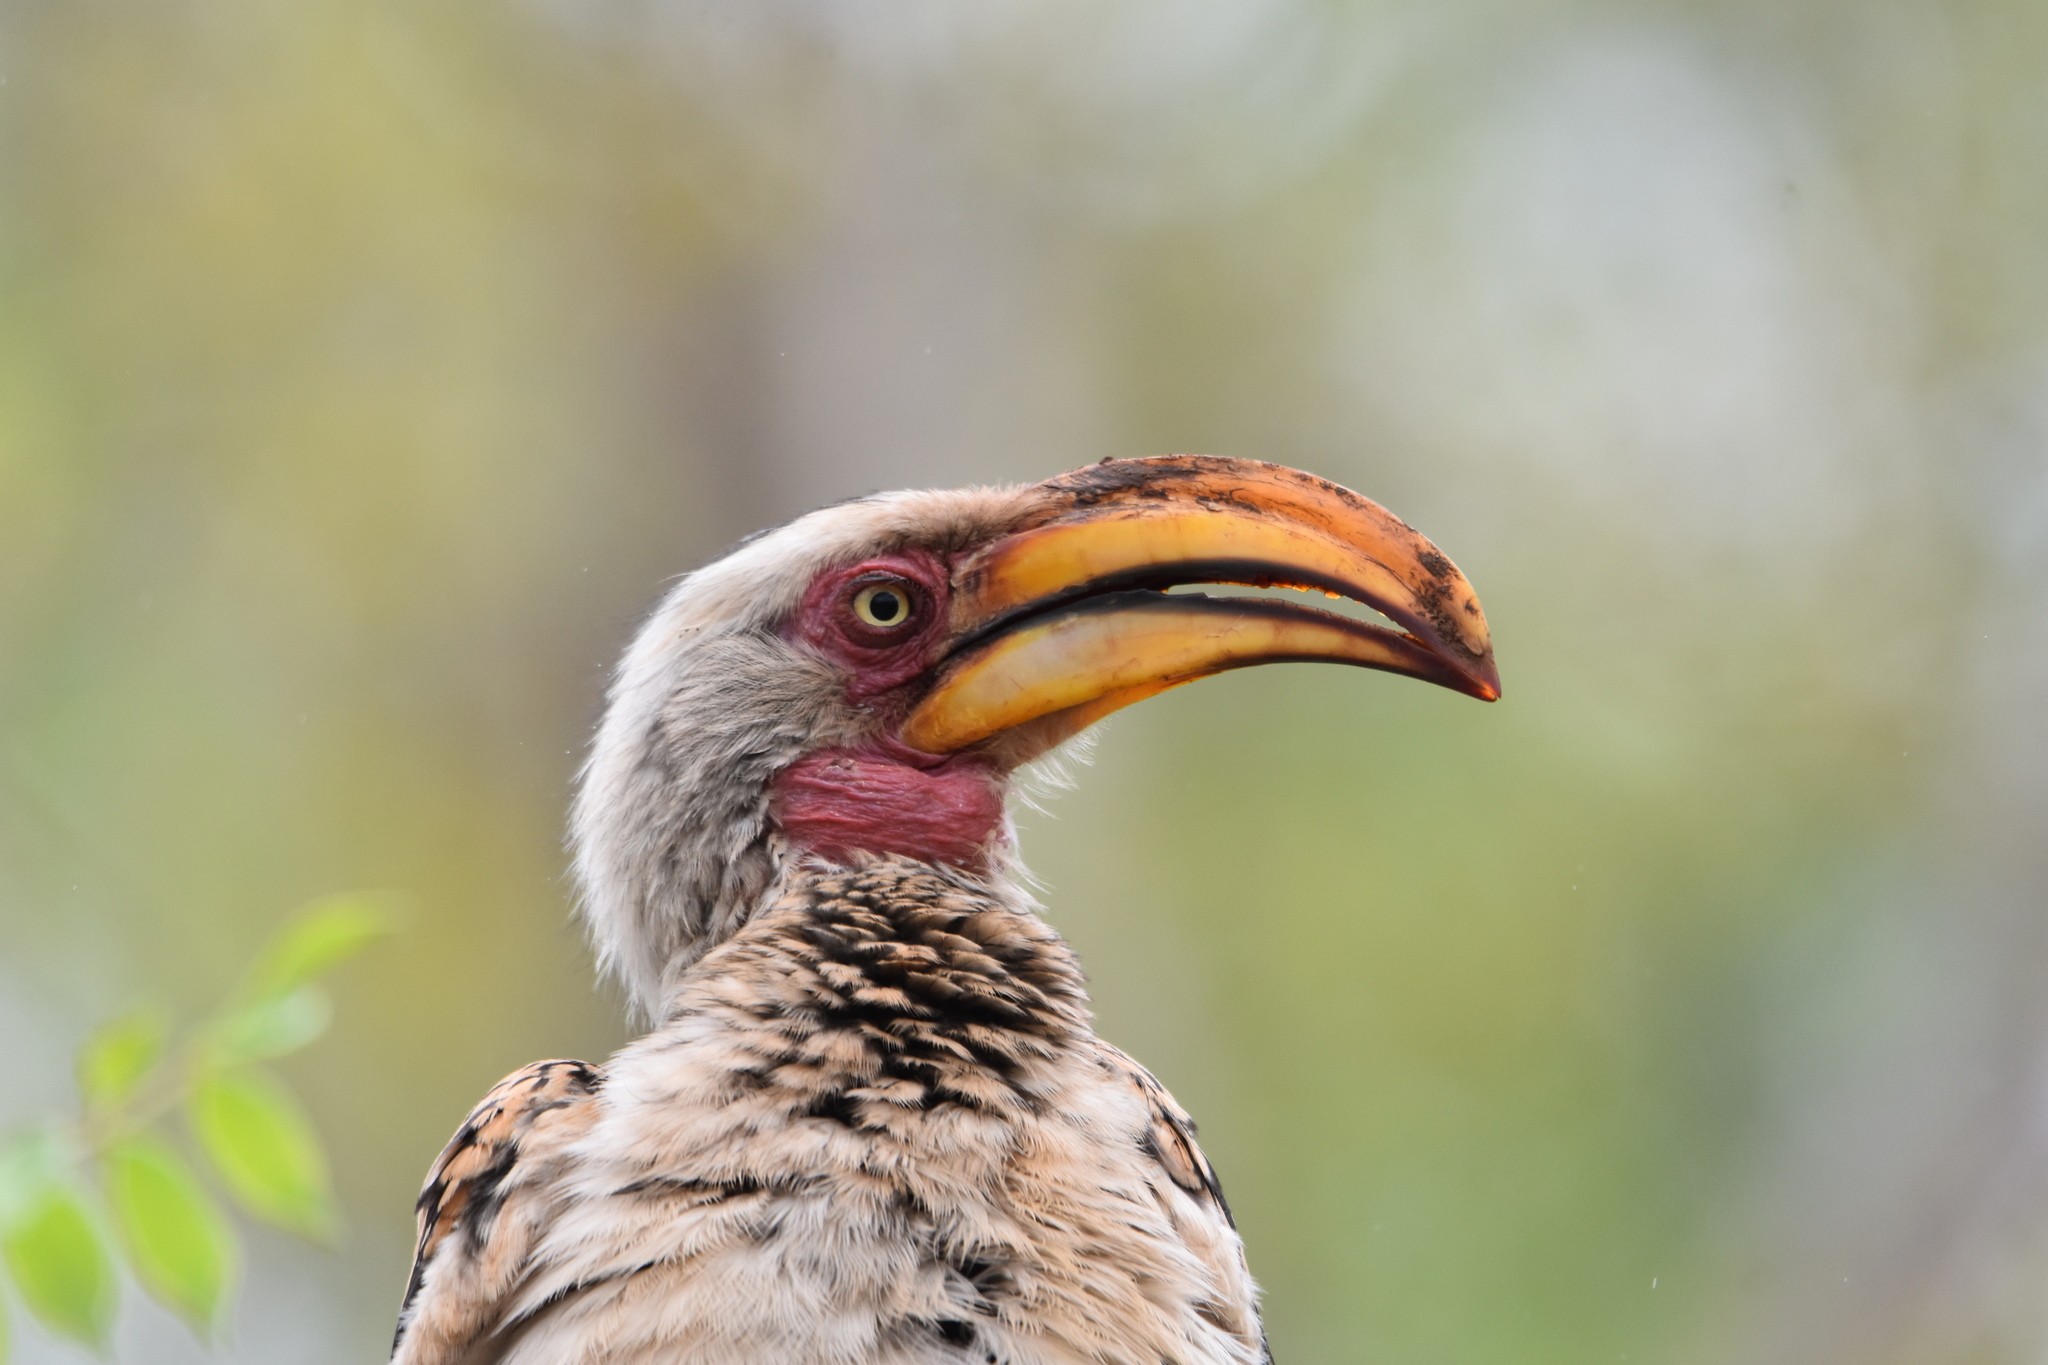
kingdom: Animalia
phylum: Chordata
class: Aves
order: Bucerotiformes
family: Bucerotidae
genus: Tockus
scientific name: Tockus leucomelas
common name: Southern yellow-billed hornbill
